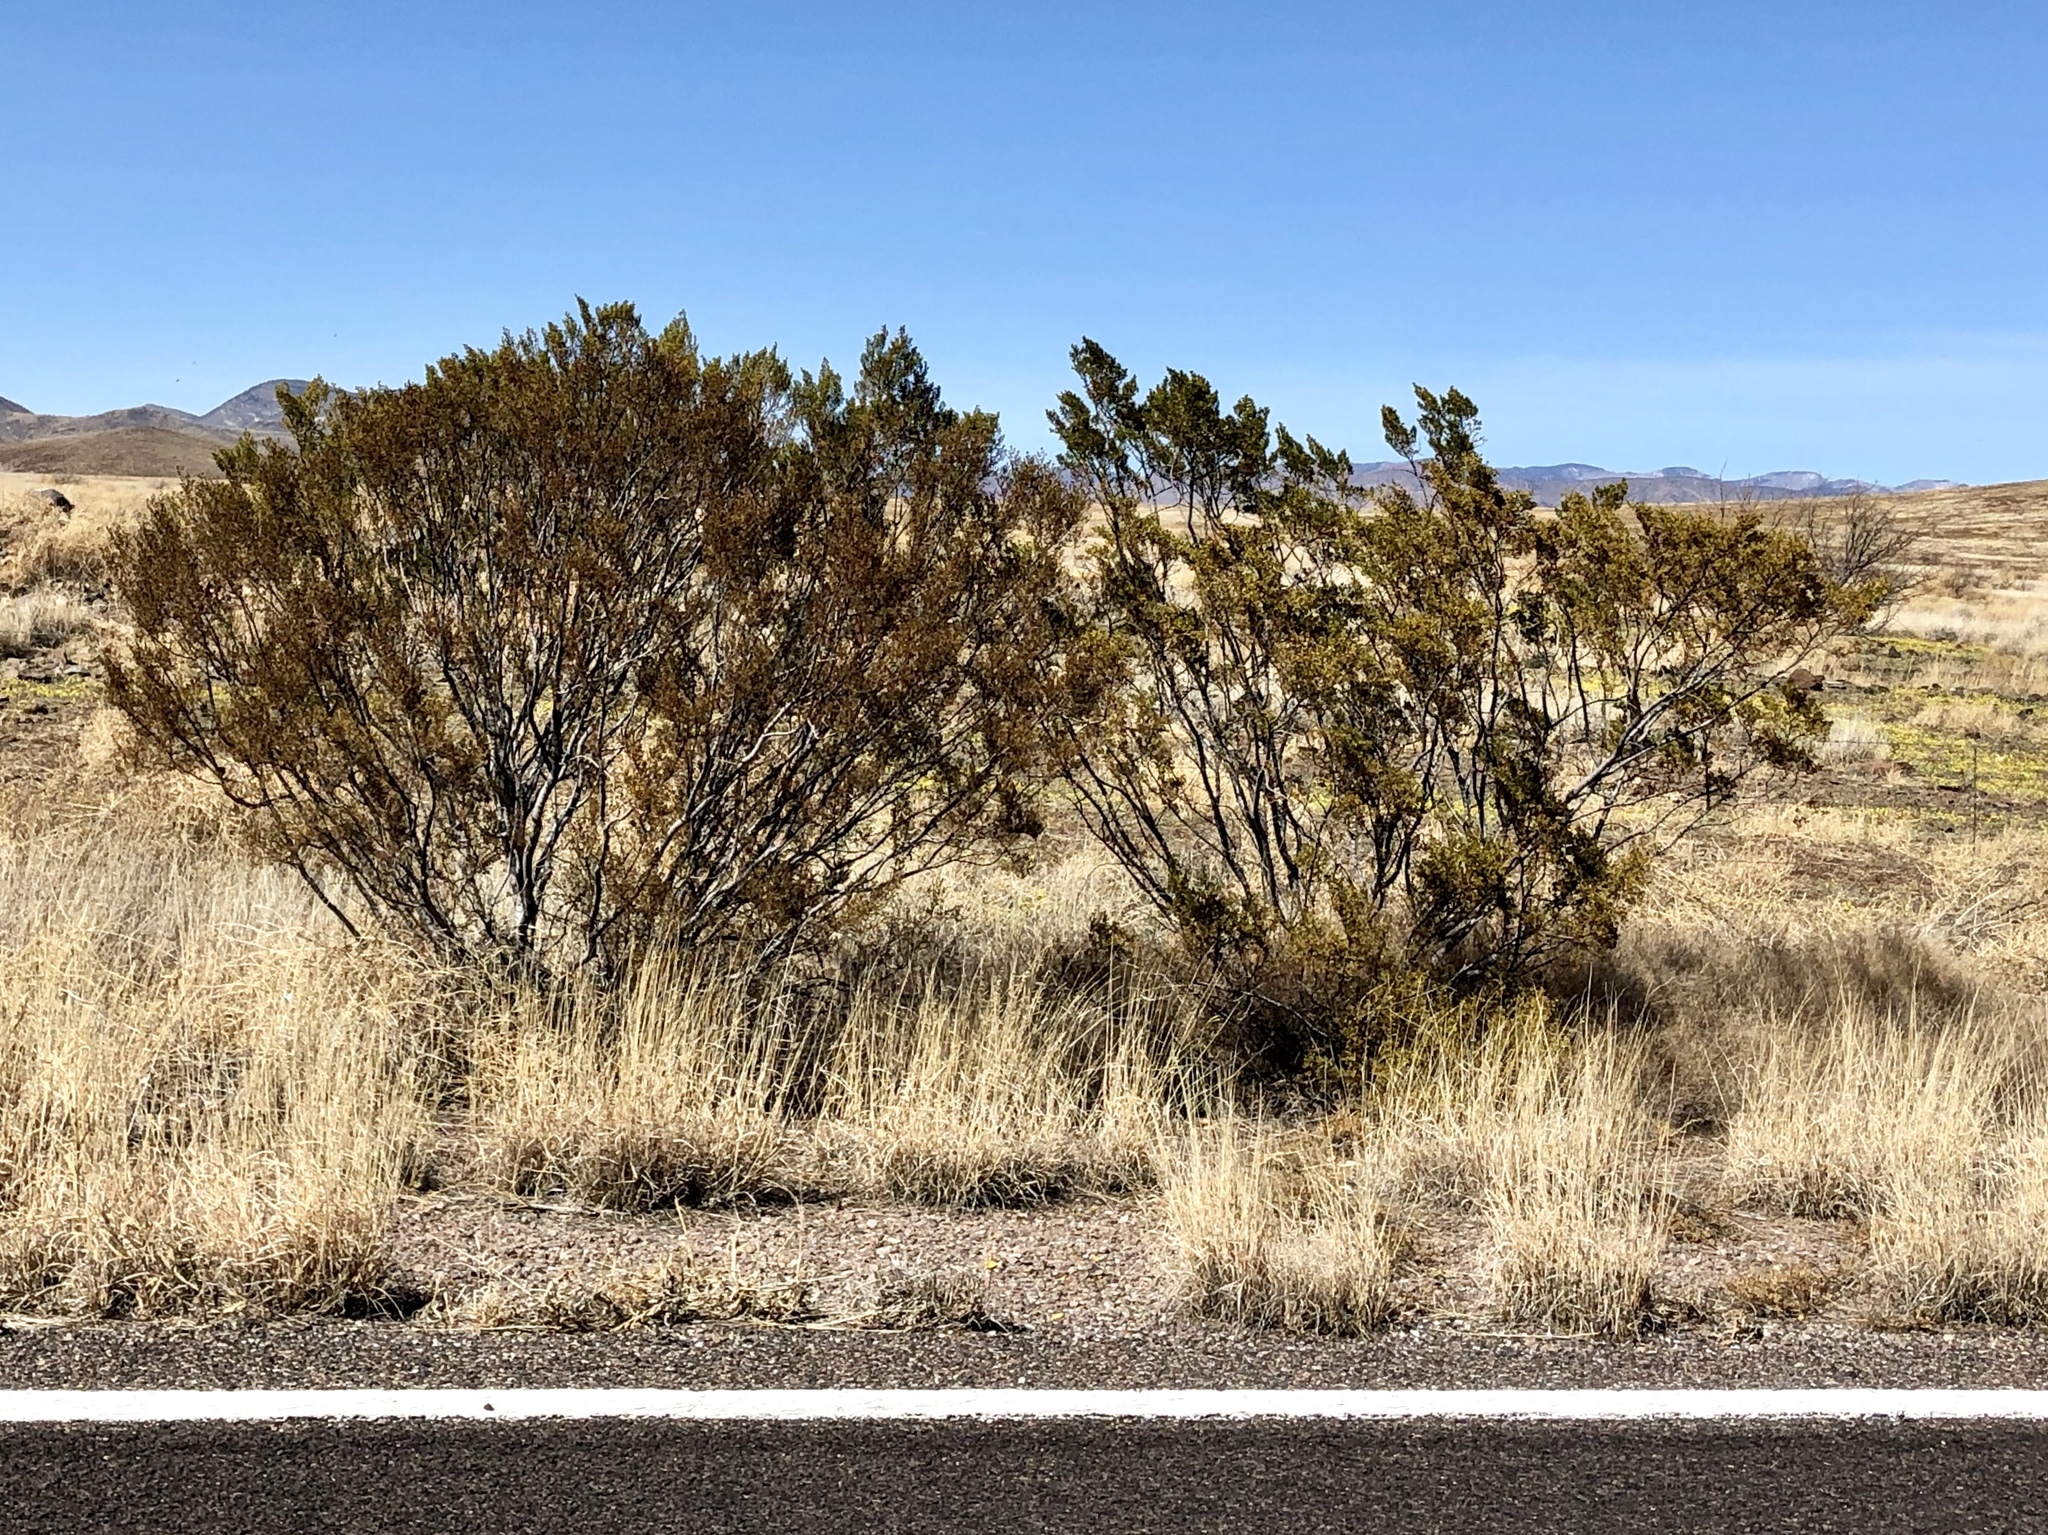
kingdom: Plantae
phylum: Tracheophyta
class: Magnoliopsida
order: Zygophyllales
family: Zygophyllaceae
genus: Larrea
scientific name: Larrea tridentata
